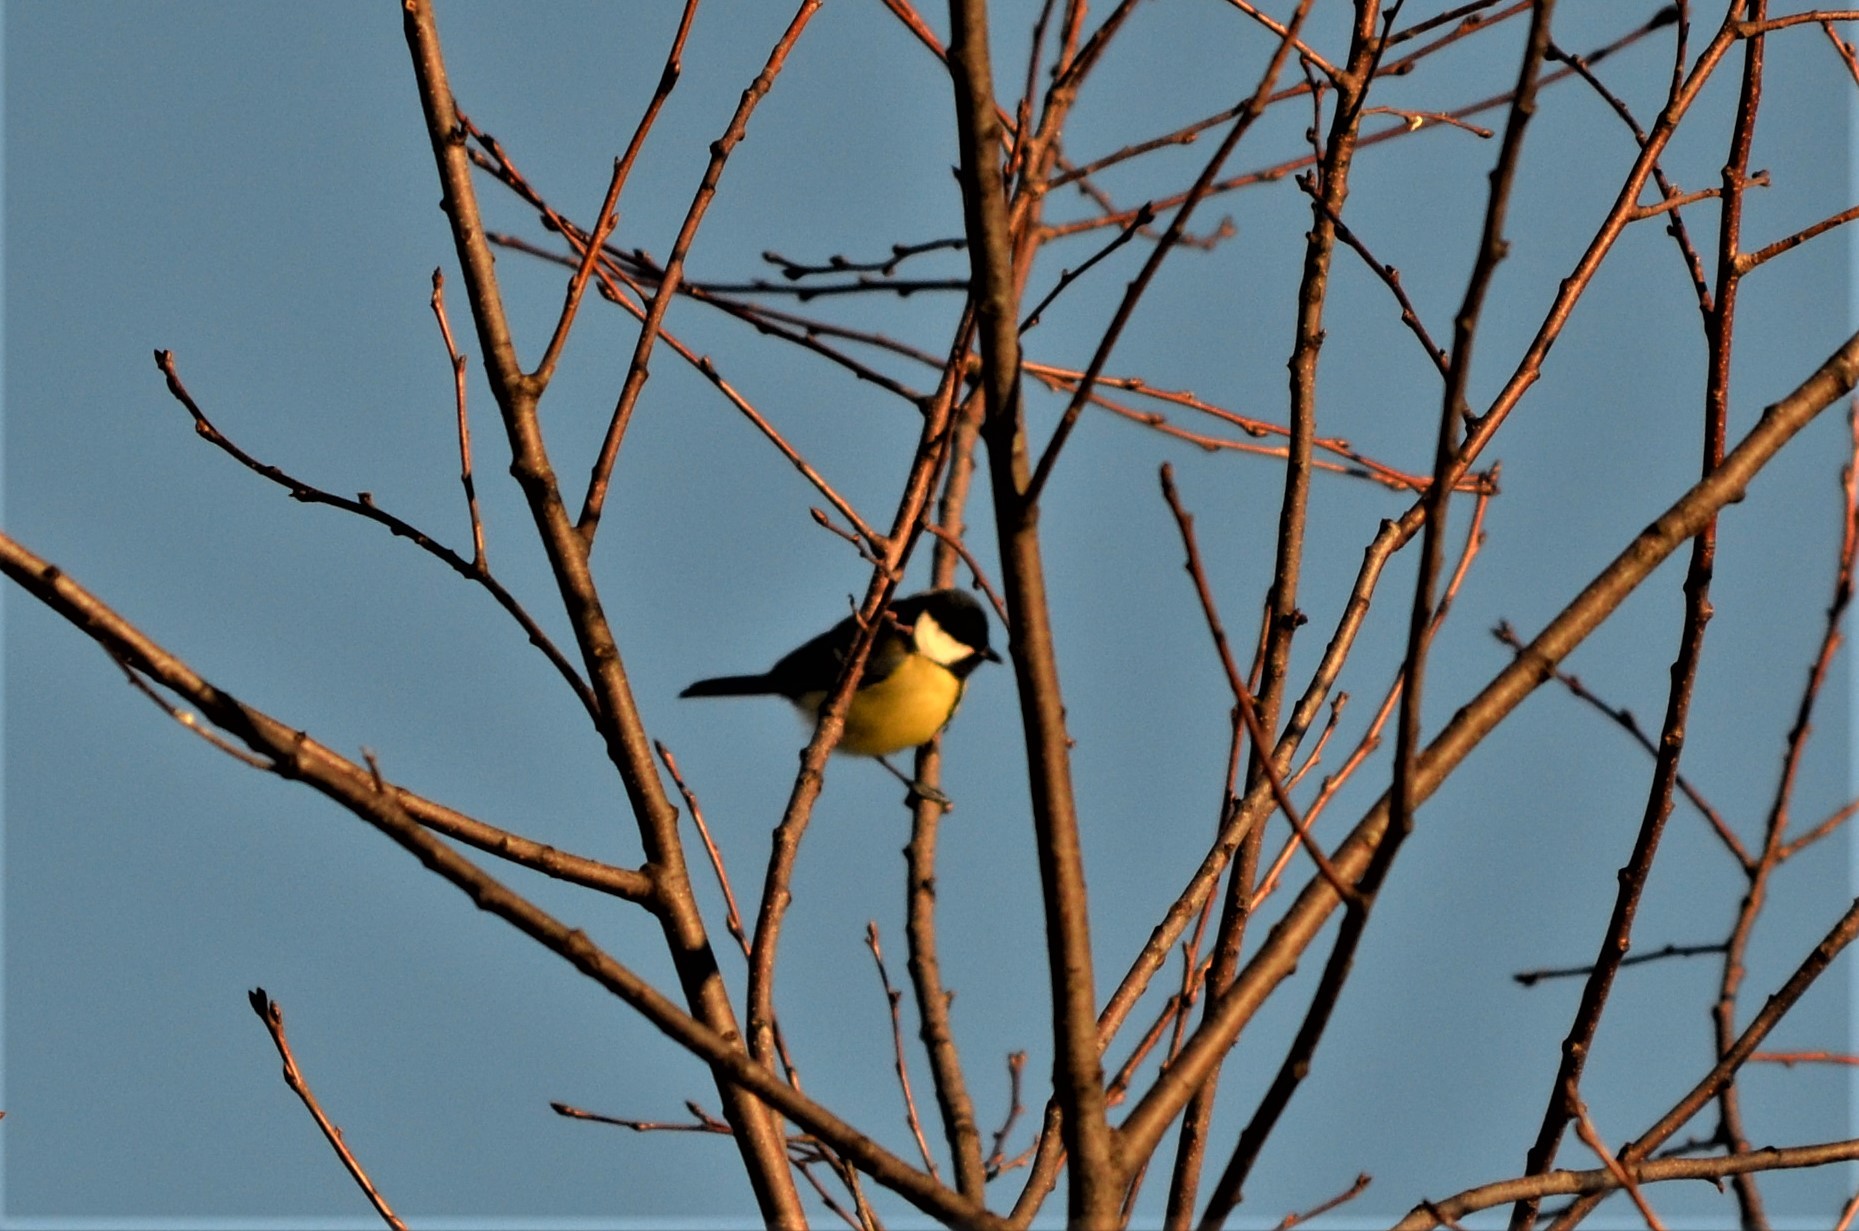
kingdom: Animalia
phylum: Chordata
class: Aves
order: Passeriformes
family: Paridae
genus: Parus
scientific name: Parus major
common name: Great tit
